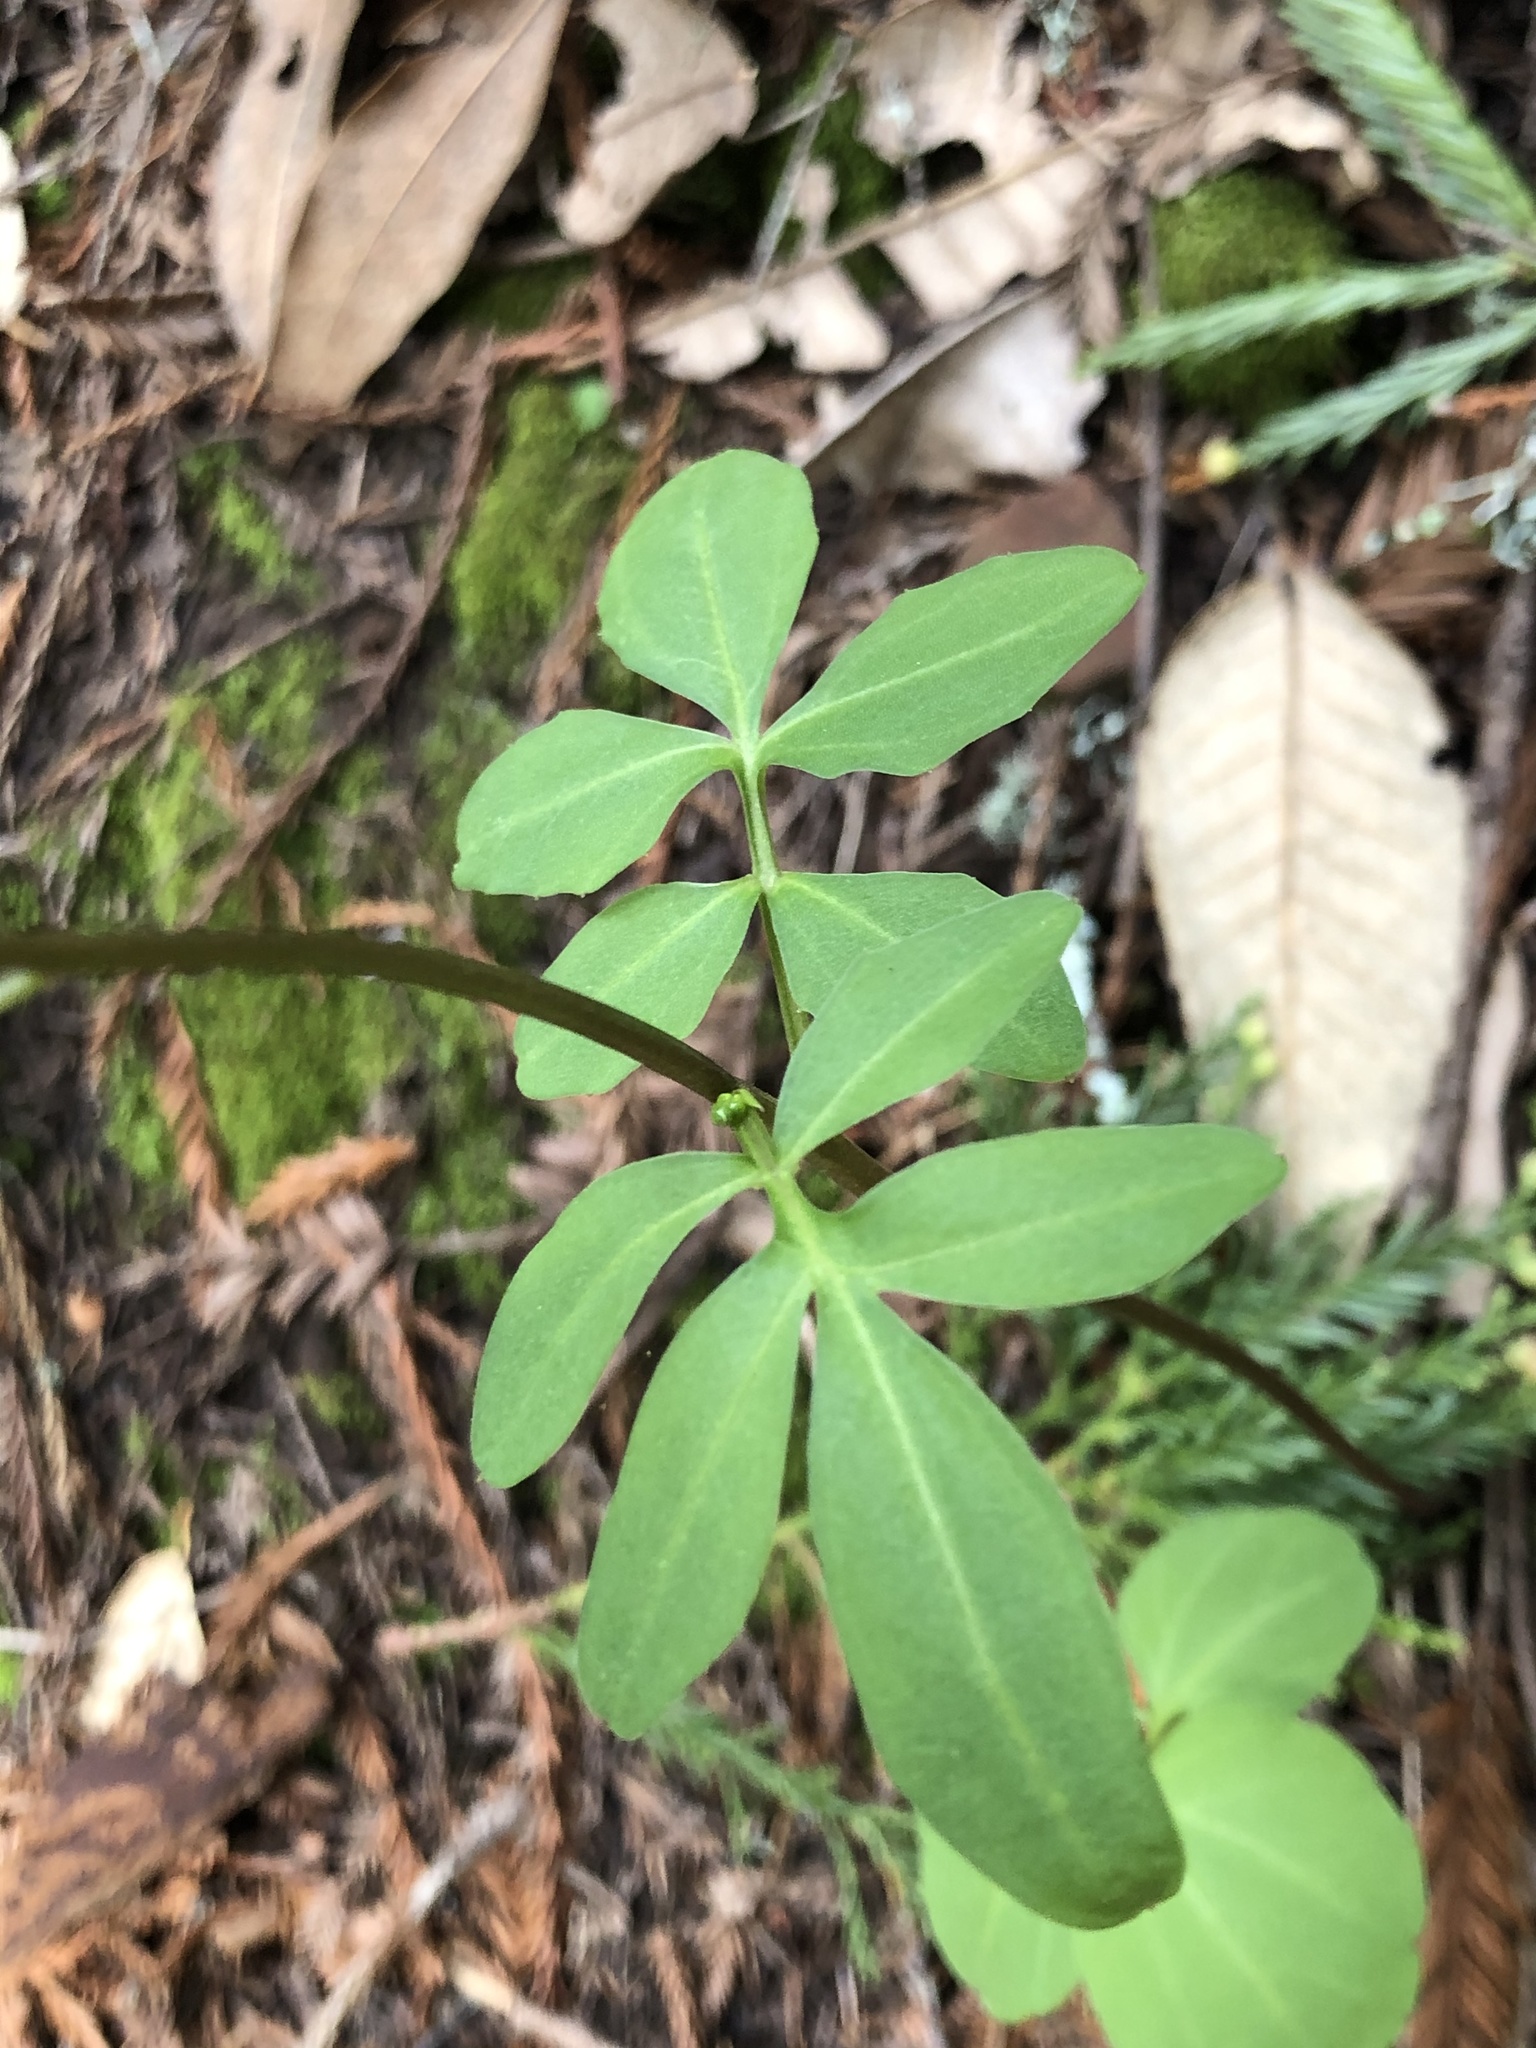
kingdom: Plantae
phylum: Tracheophyta
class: Magnoliopsida
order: Brassicales
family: Brassicaceae
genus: Cardamine
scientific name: Cardamine californica
